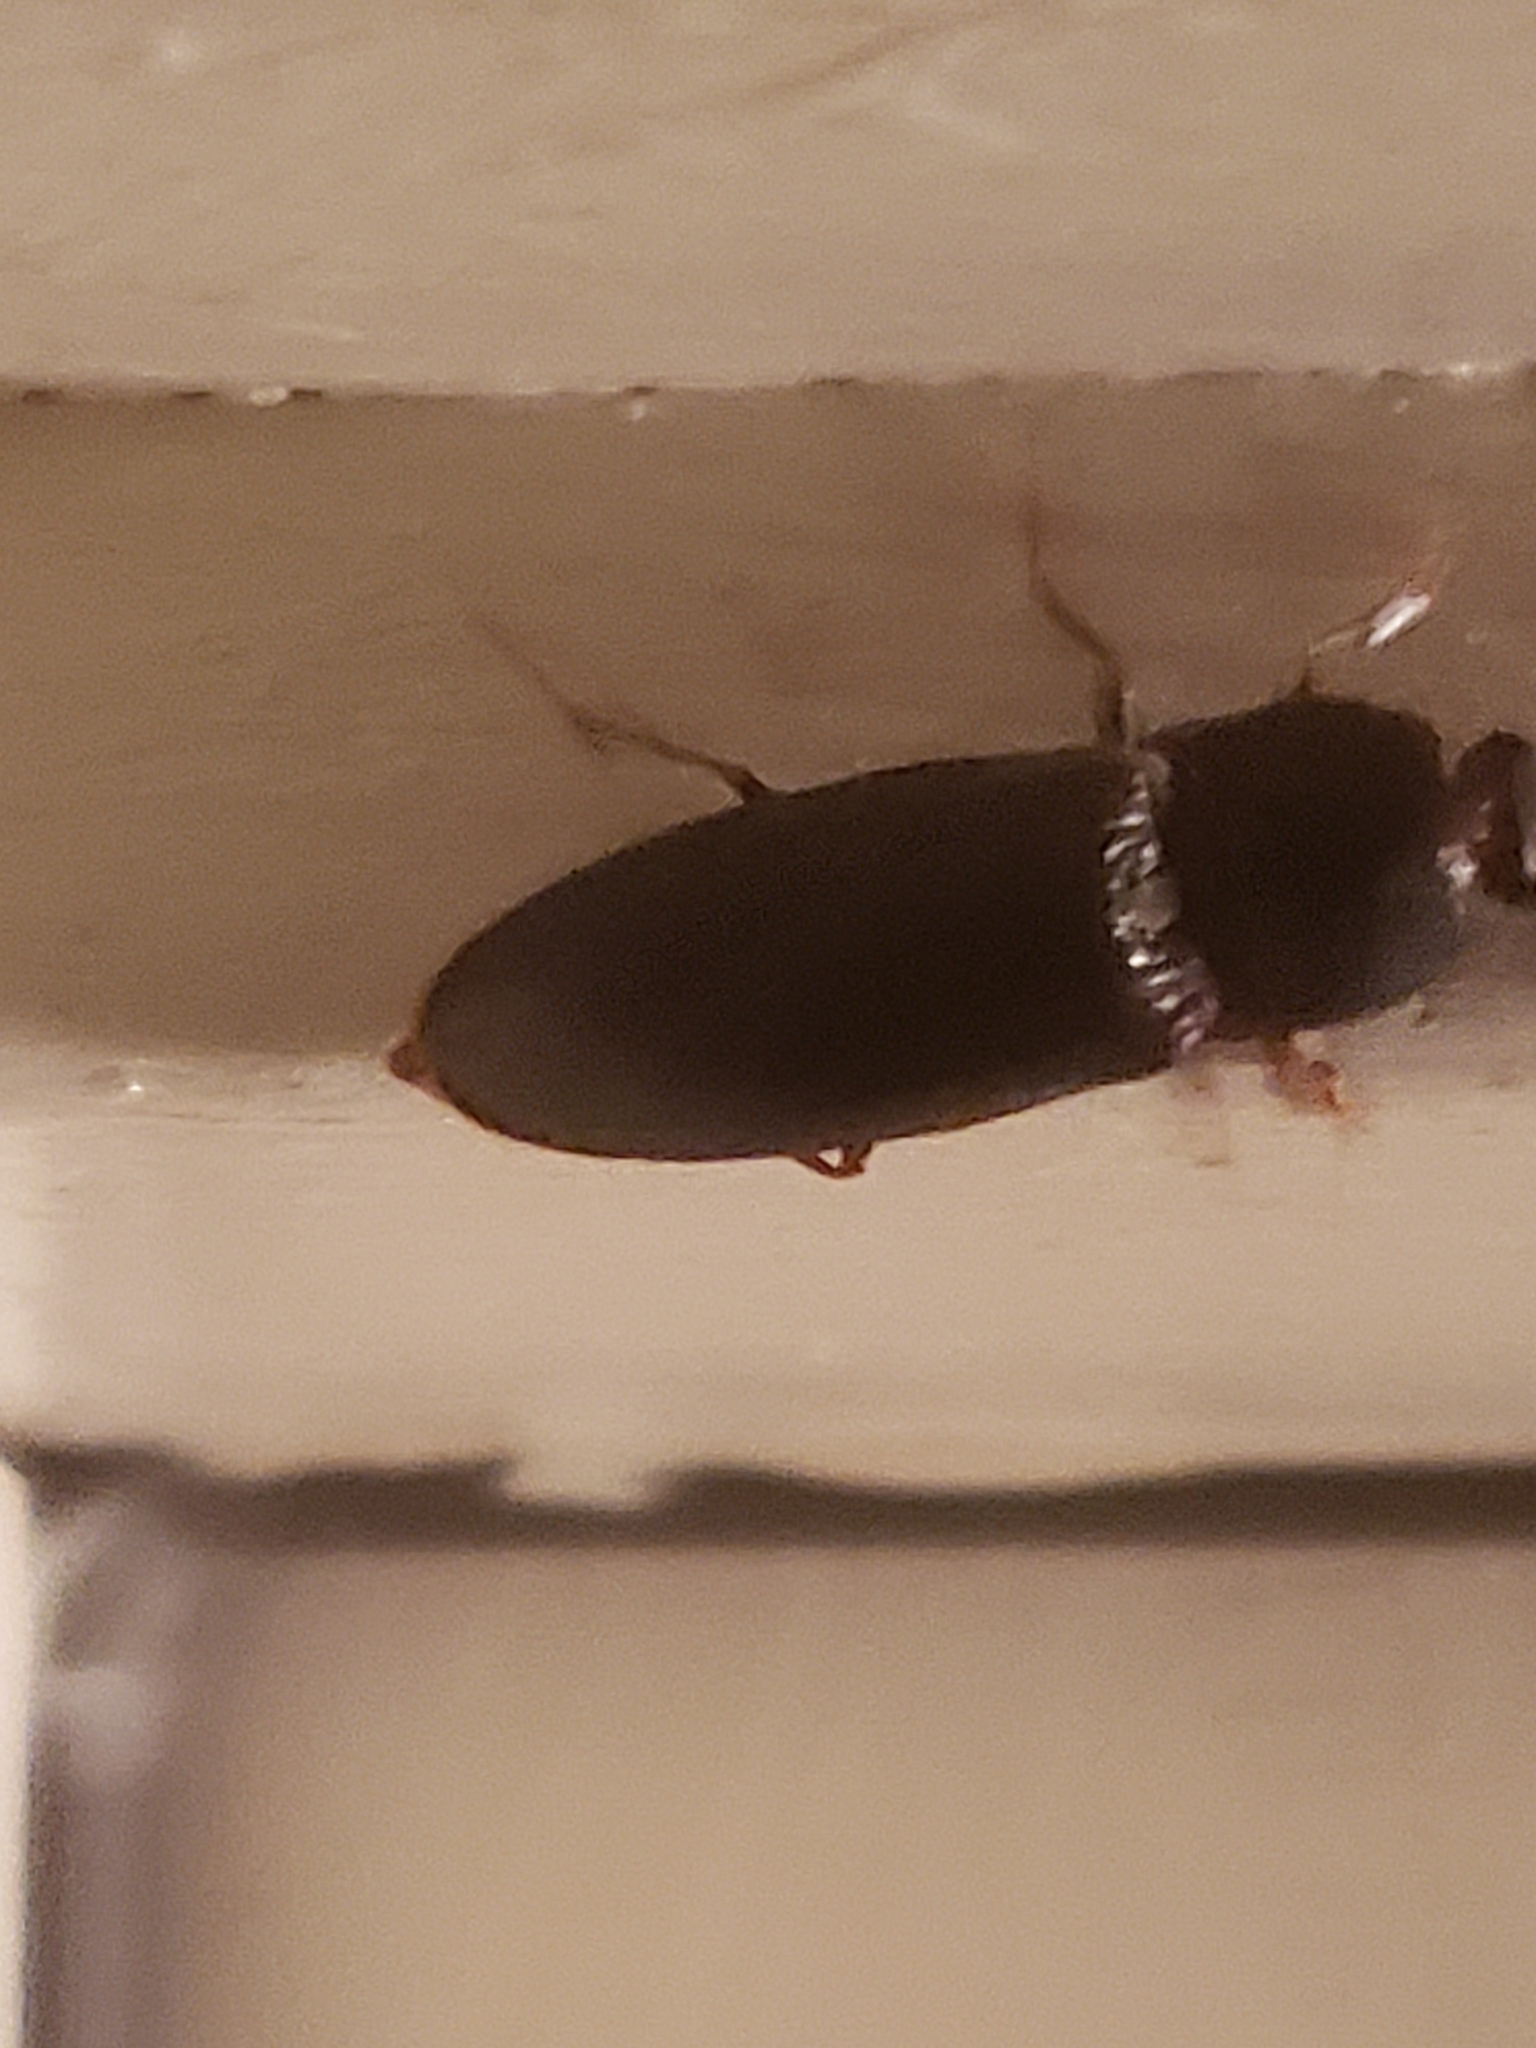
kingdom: Animalia
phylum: Arthropoda
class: Insecta
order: Coleoptera
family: Elateridae
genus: Hemicrepidius
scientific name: Hemicrepidius
